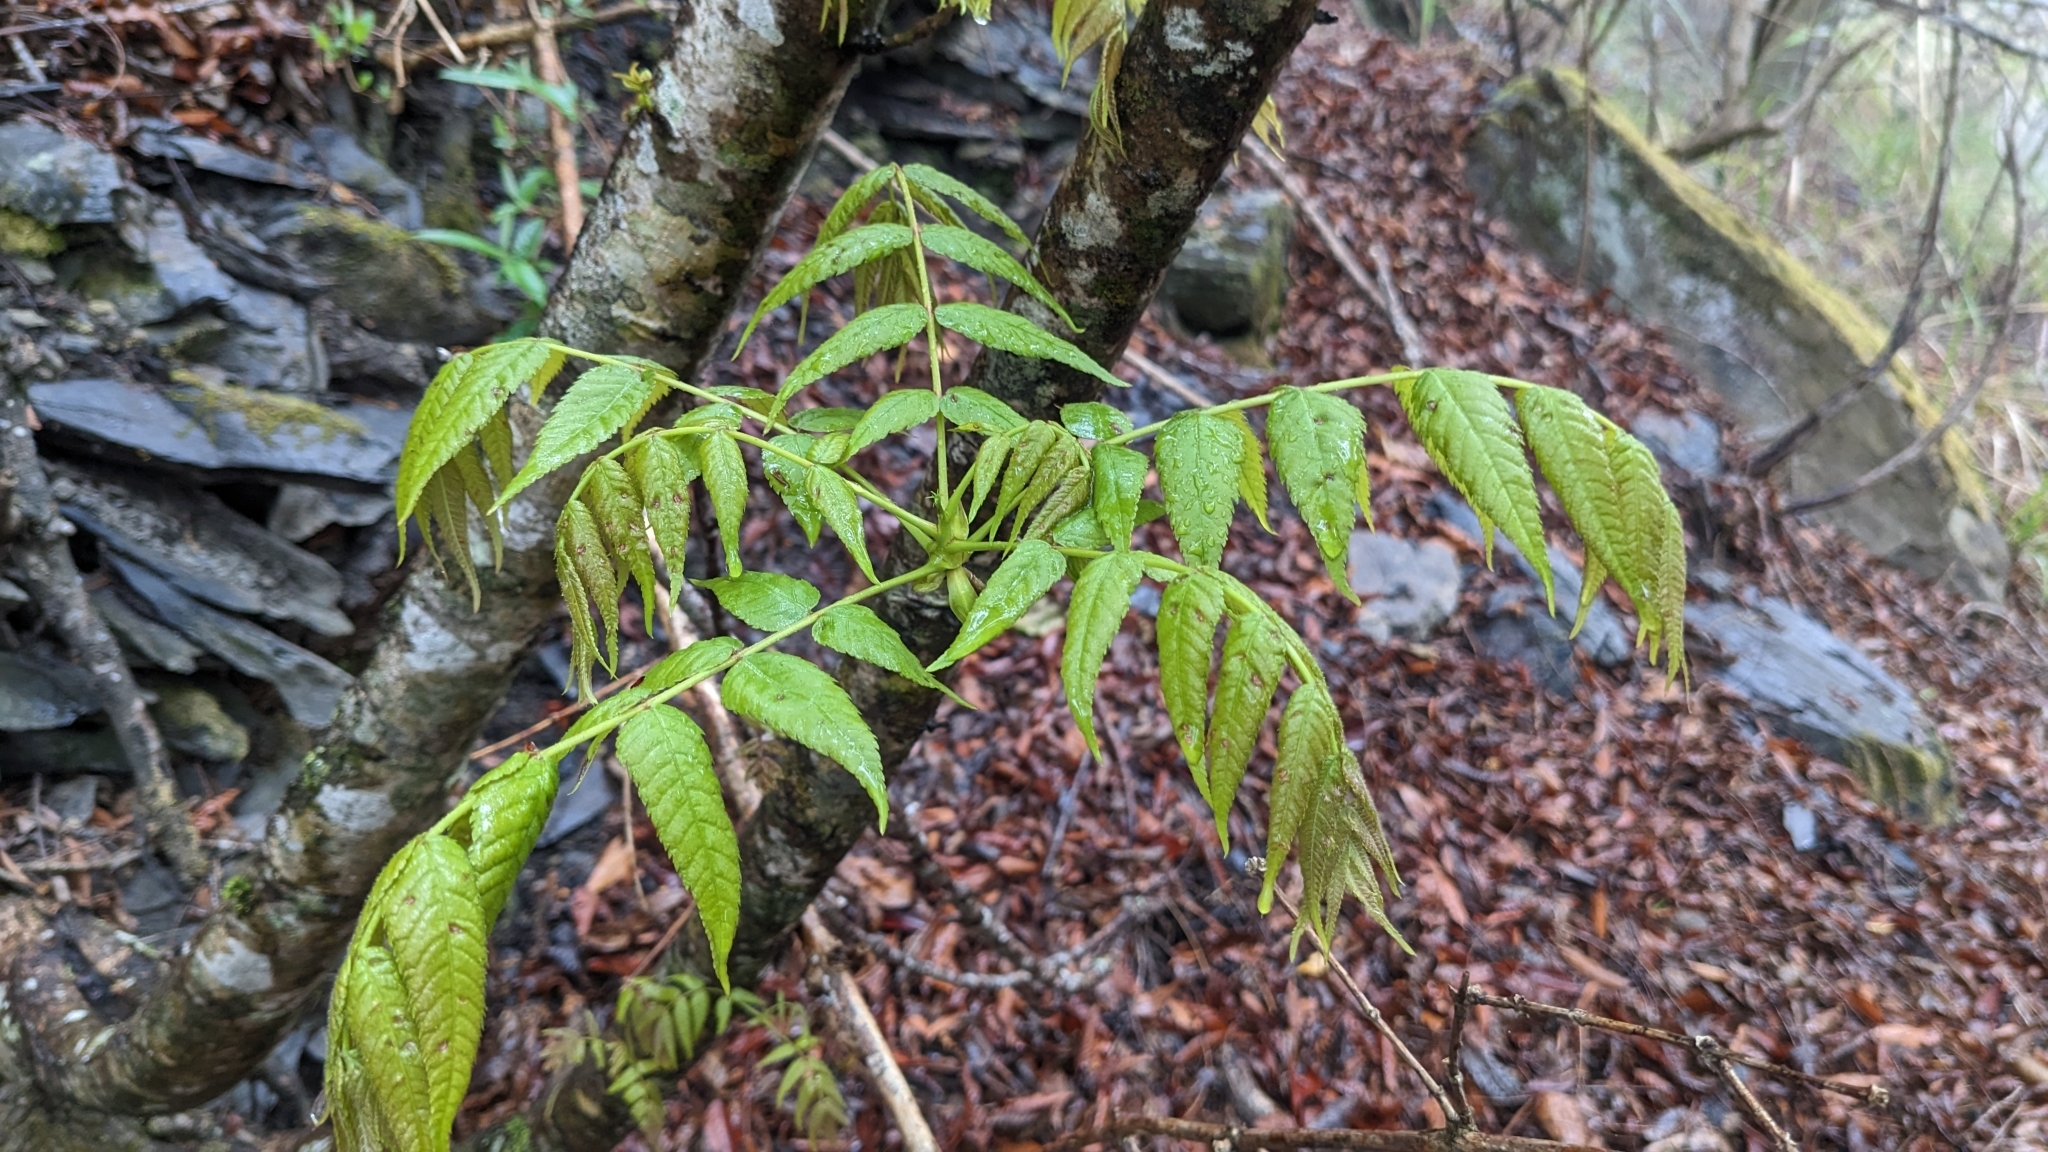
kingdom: Plantae
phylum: Tracheophyta
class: Magnoliopsida
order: Fagales
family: Juglandaceae
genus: Platycarya
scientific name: Platycarya strobilacea
